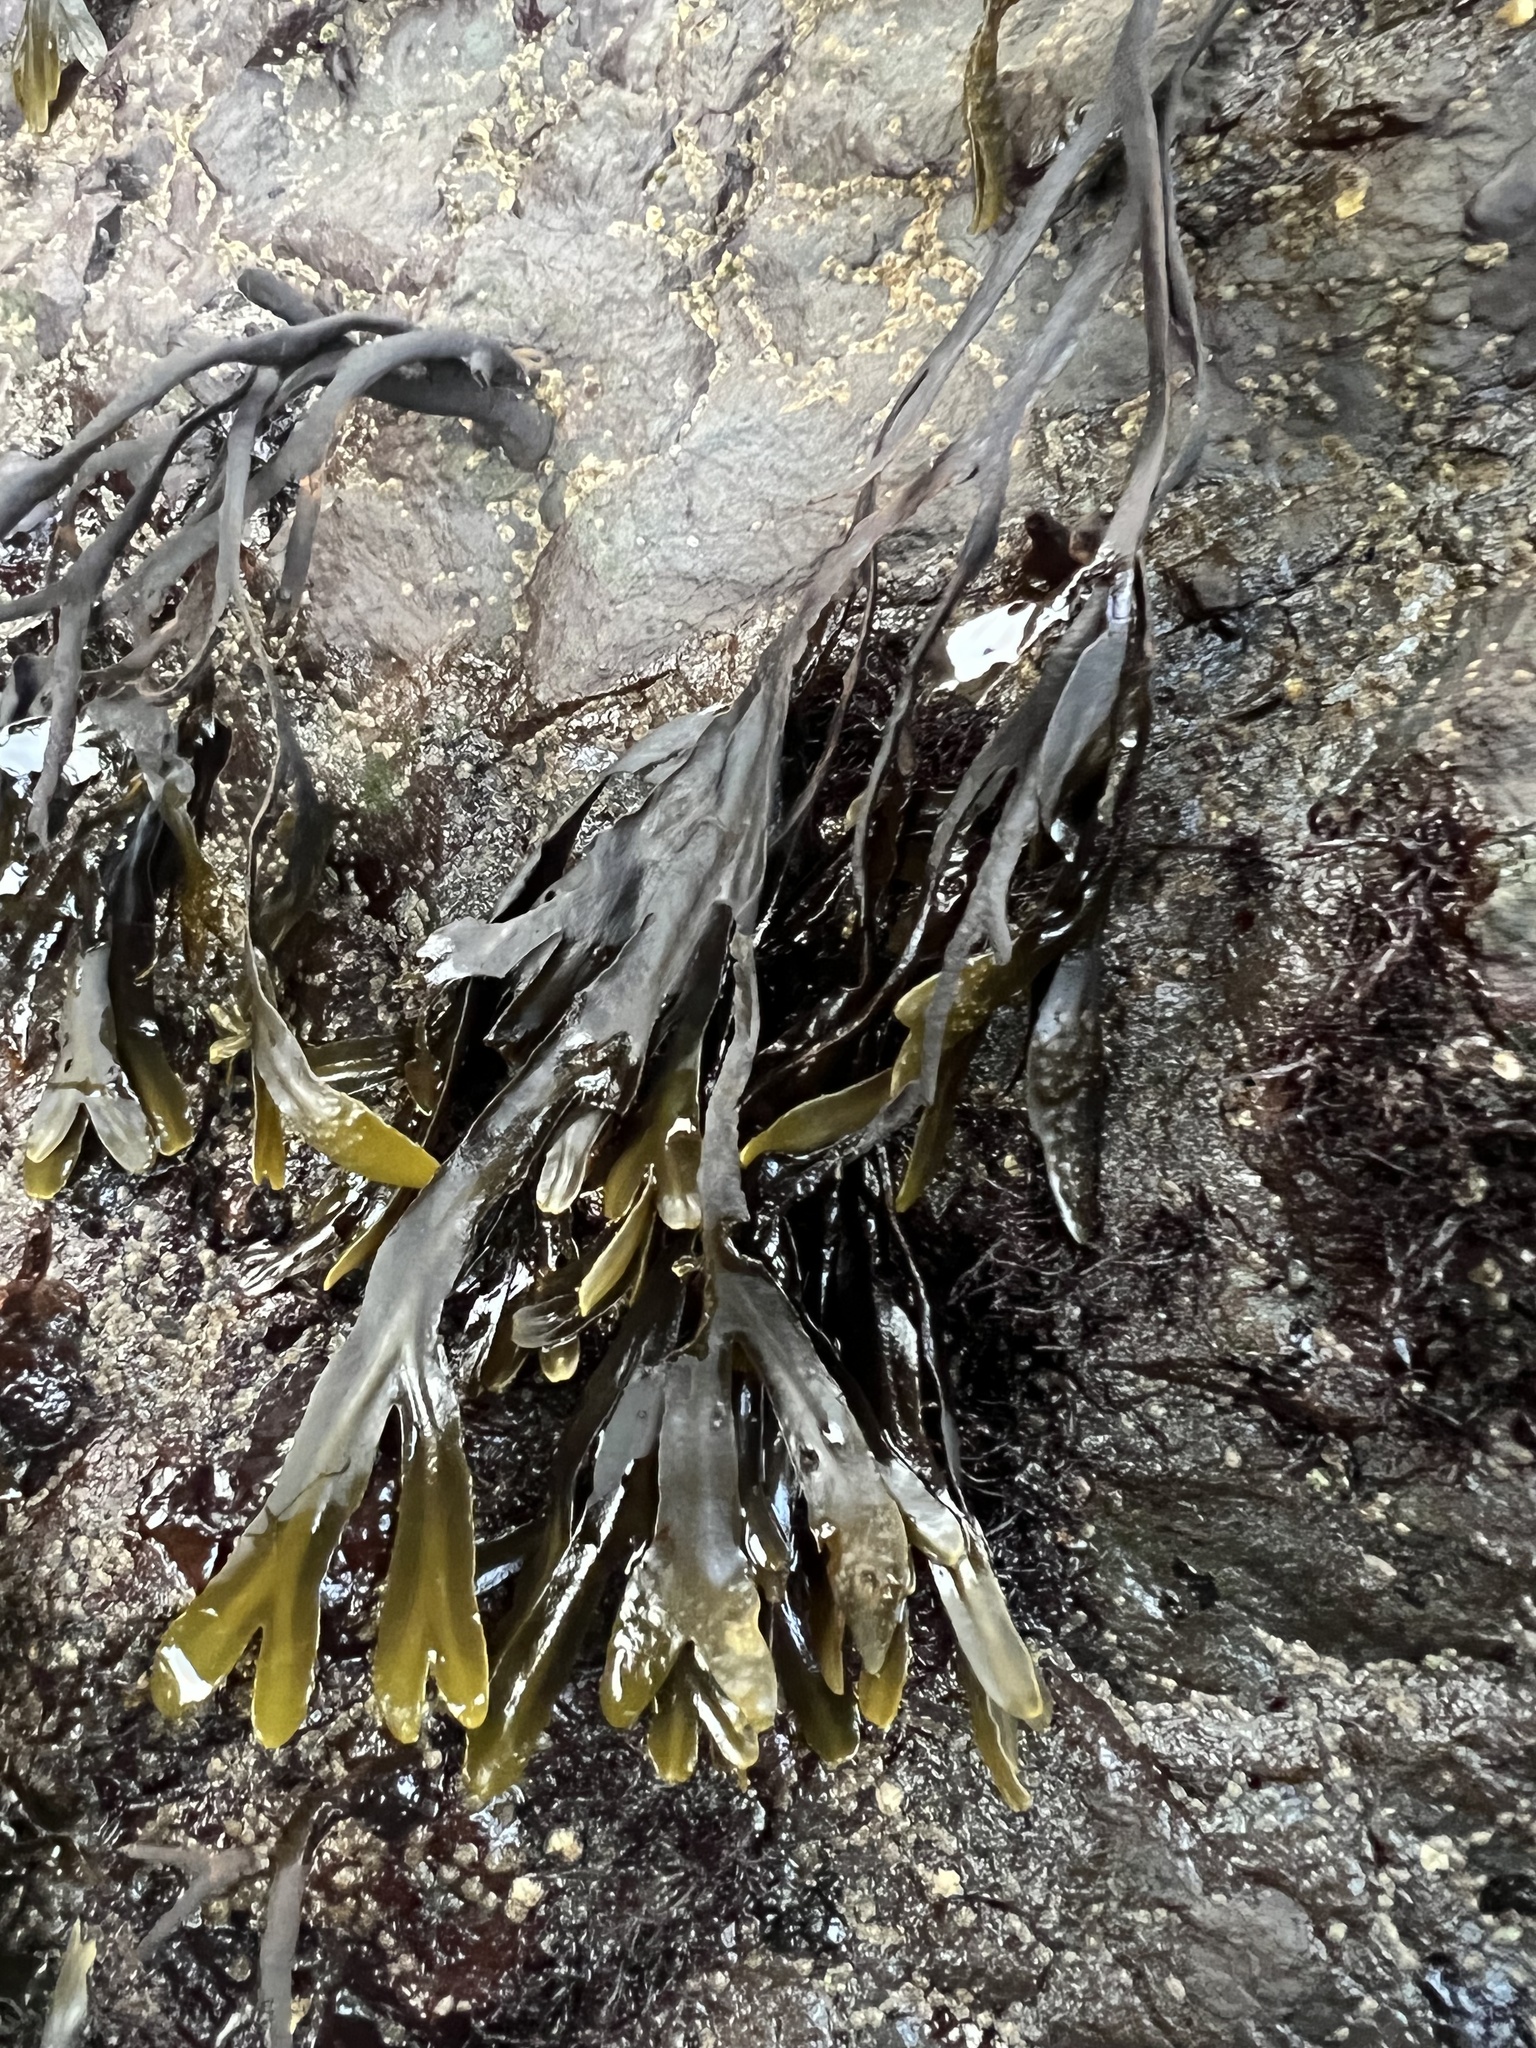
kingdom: Chromista
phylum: Ochrophyta
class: Phaeophyceae
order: Fucales
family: Fucaceae
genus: Fucus
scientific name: Fucus distichus
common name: Rockweed
